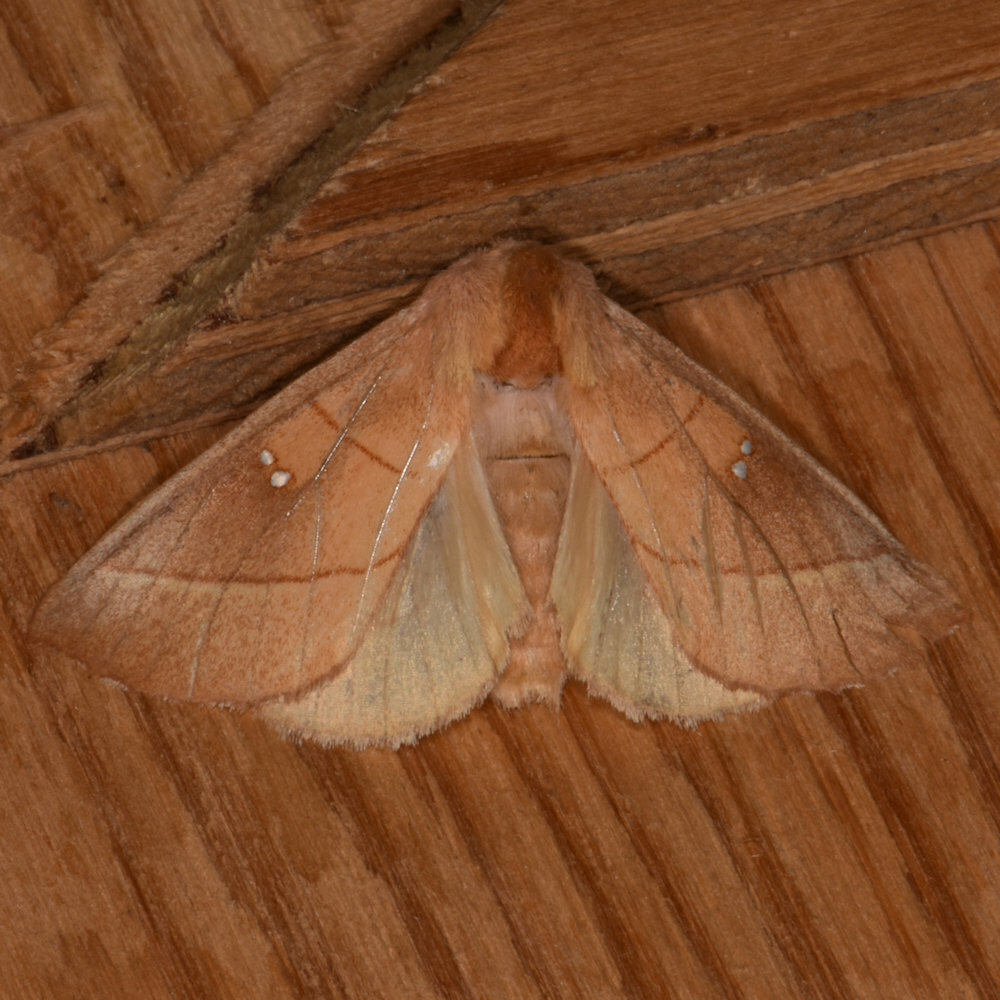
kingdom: Animalia
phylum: Arthropoda
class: Insecta
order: Lepidoptera
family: Notodontidae
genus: Nadata
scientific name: Nadata gibbosa
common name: White-dotted prominent
